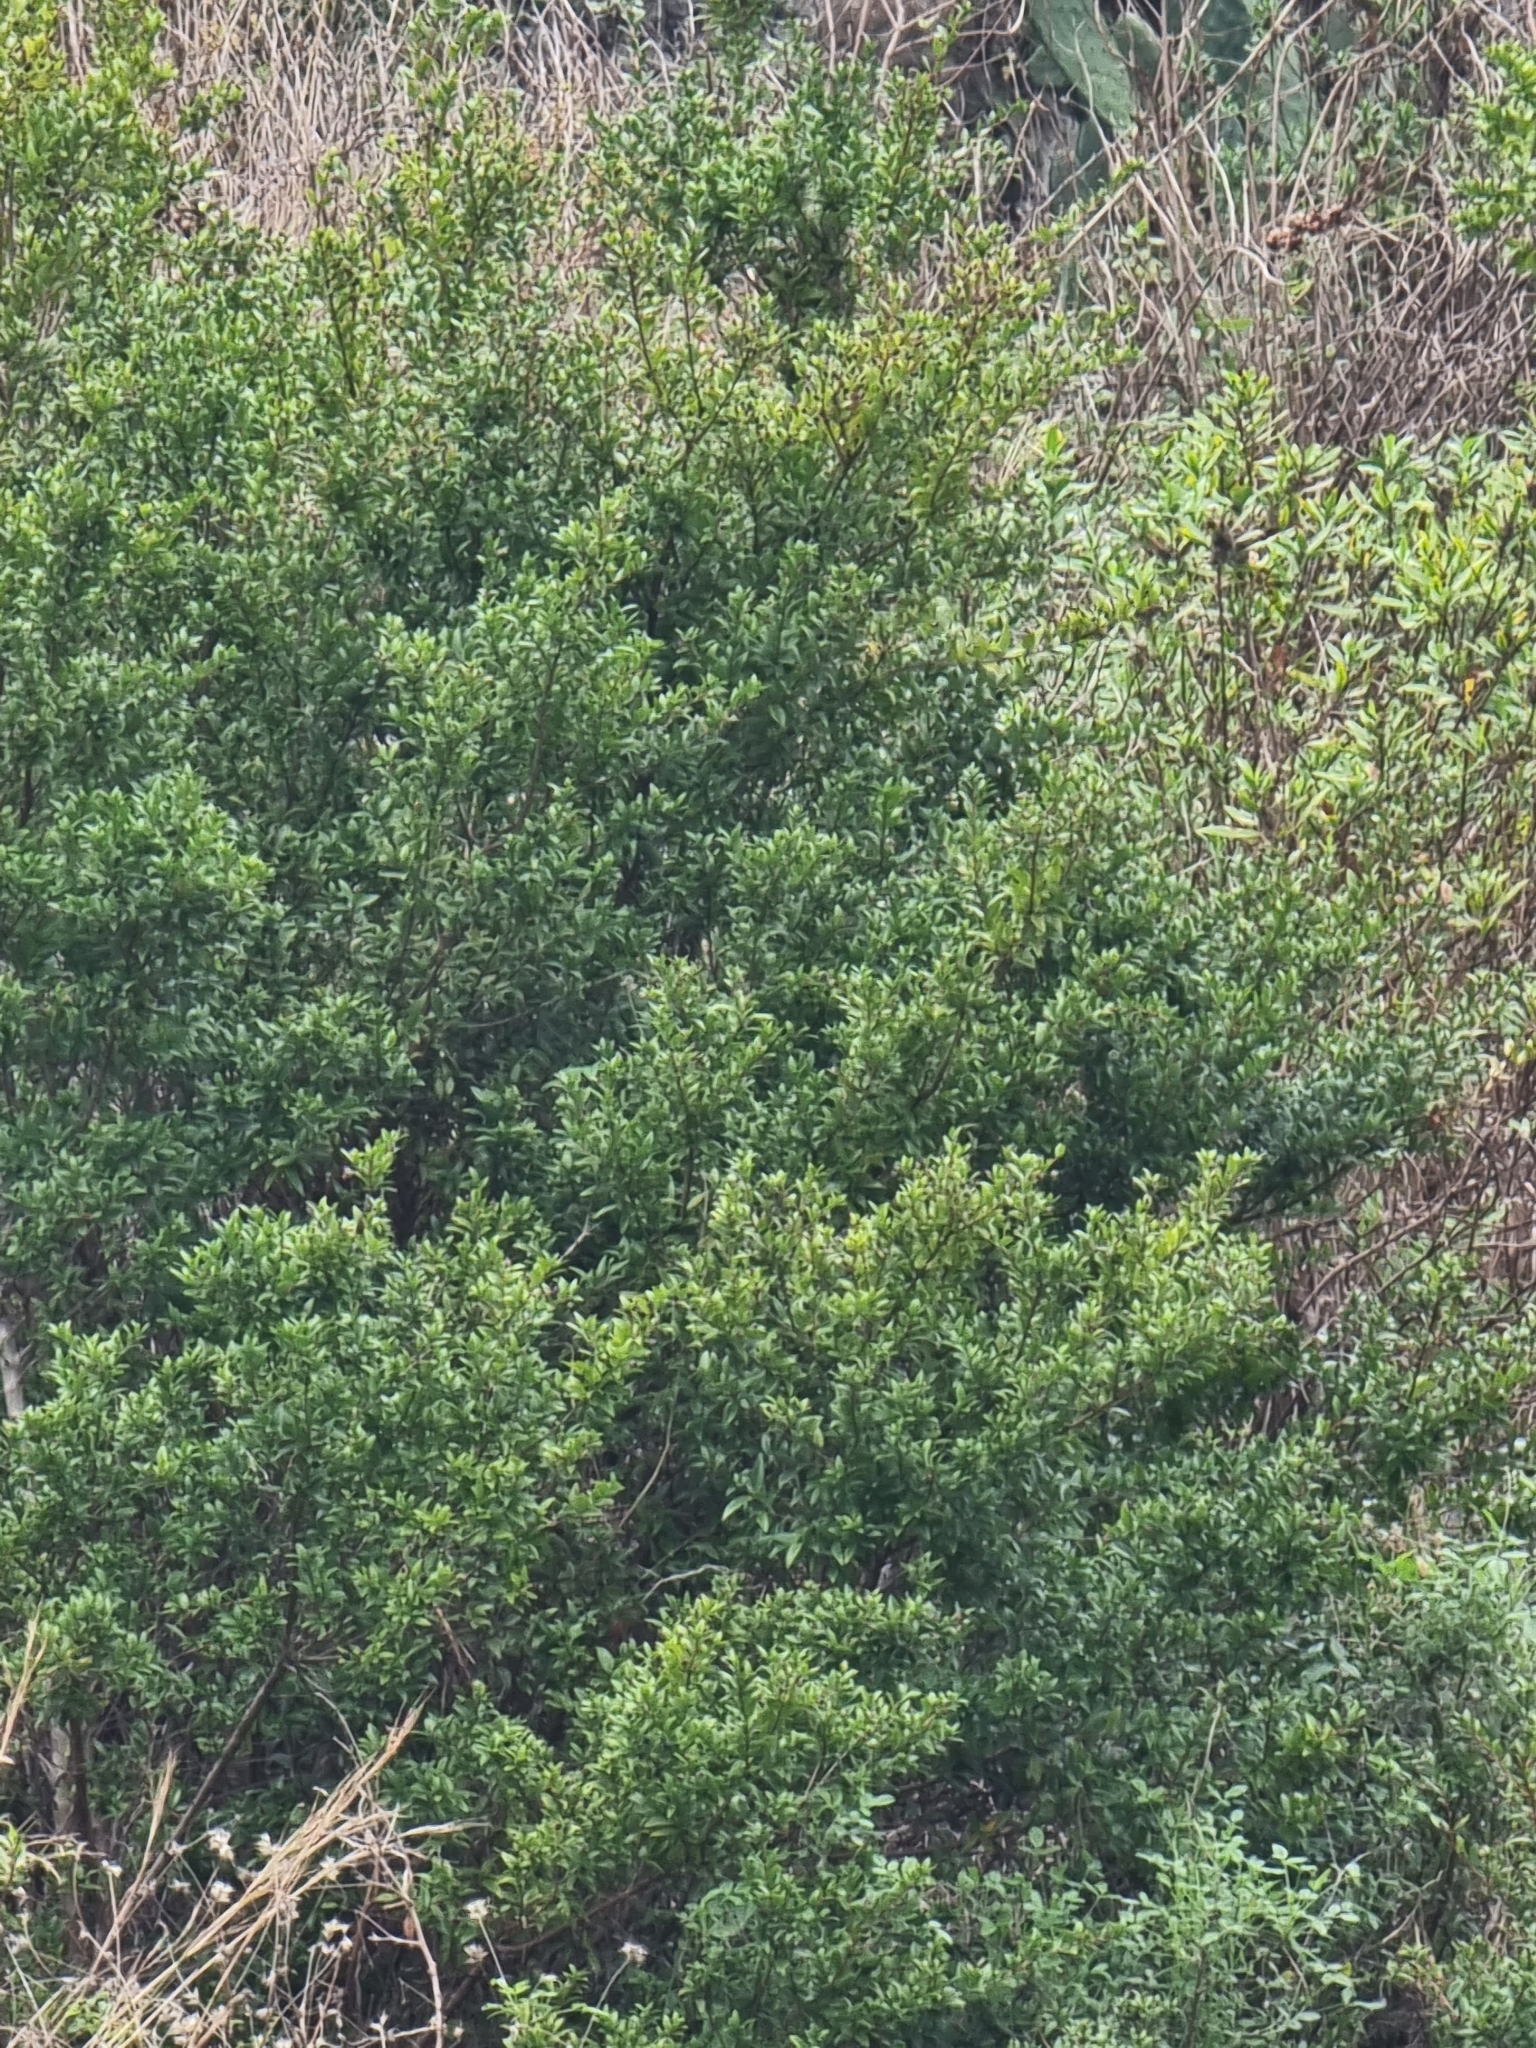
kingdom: Plantae
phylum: Tracheophyta
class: Magnoliopsida
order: Myrtales
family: Myrtaceae
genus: Myrtus
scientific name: Myrtus communis
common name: Myrtle
